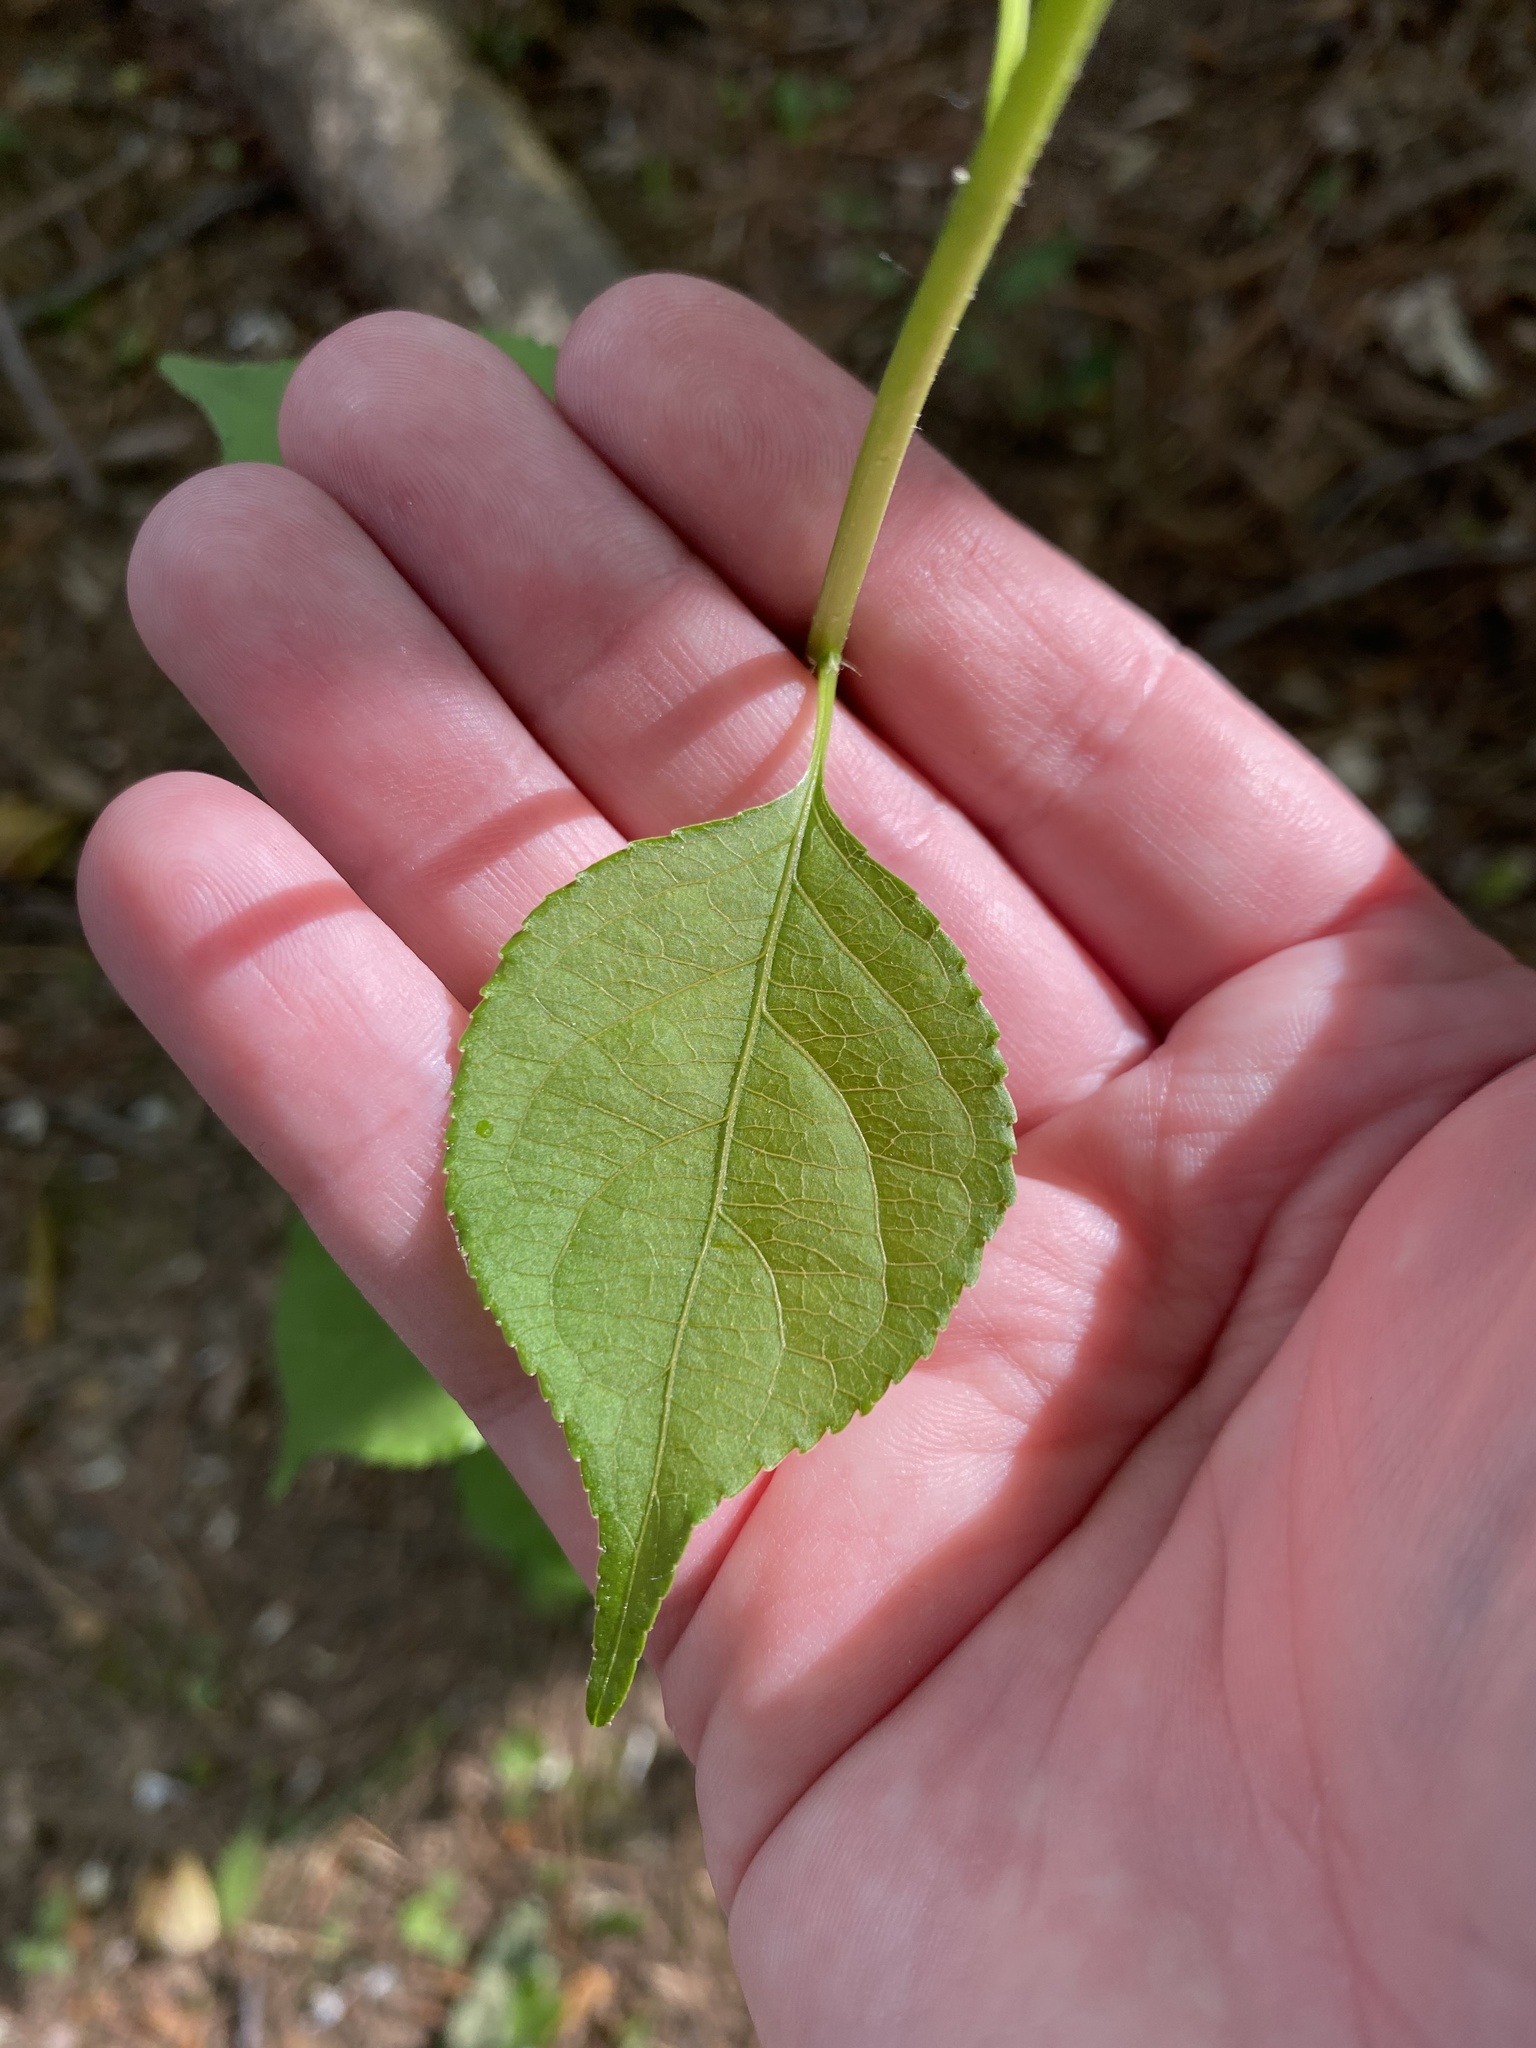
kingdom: Plantae
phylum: Tracheophyta
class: Magnoliopsida
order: Celastrales
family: Celastraceae
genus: Celastrus
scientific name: Celastrus orbiculatus
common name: Oriental bittersweet
